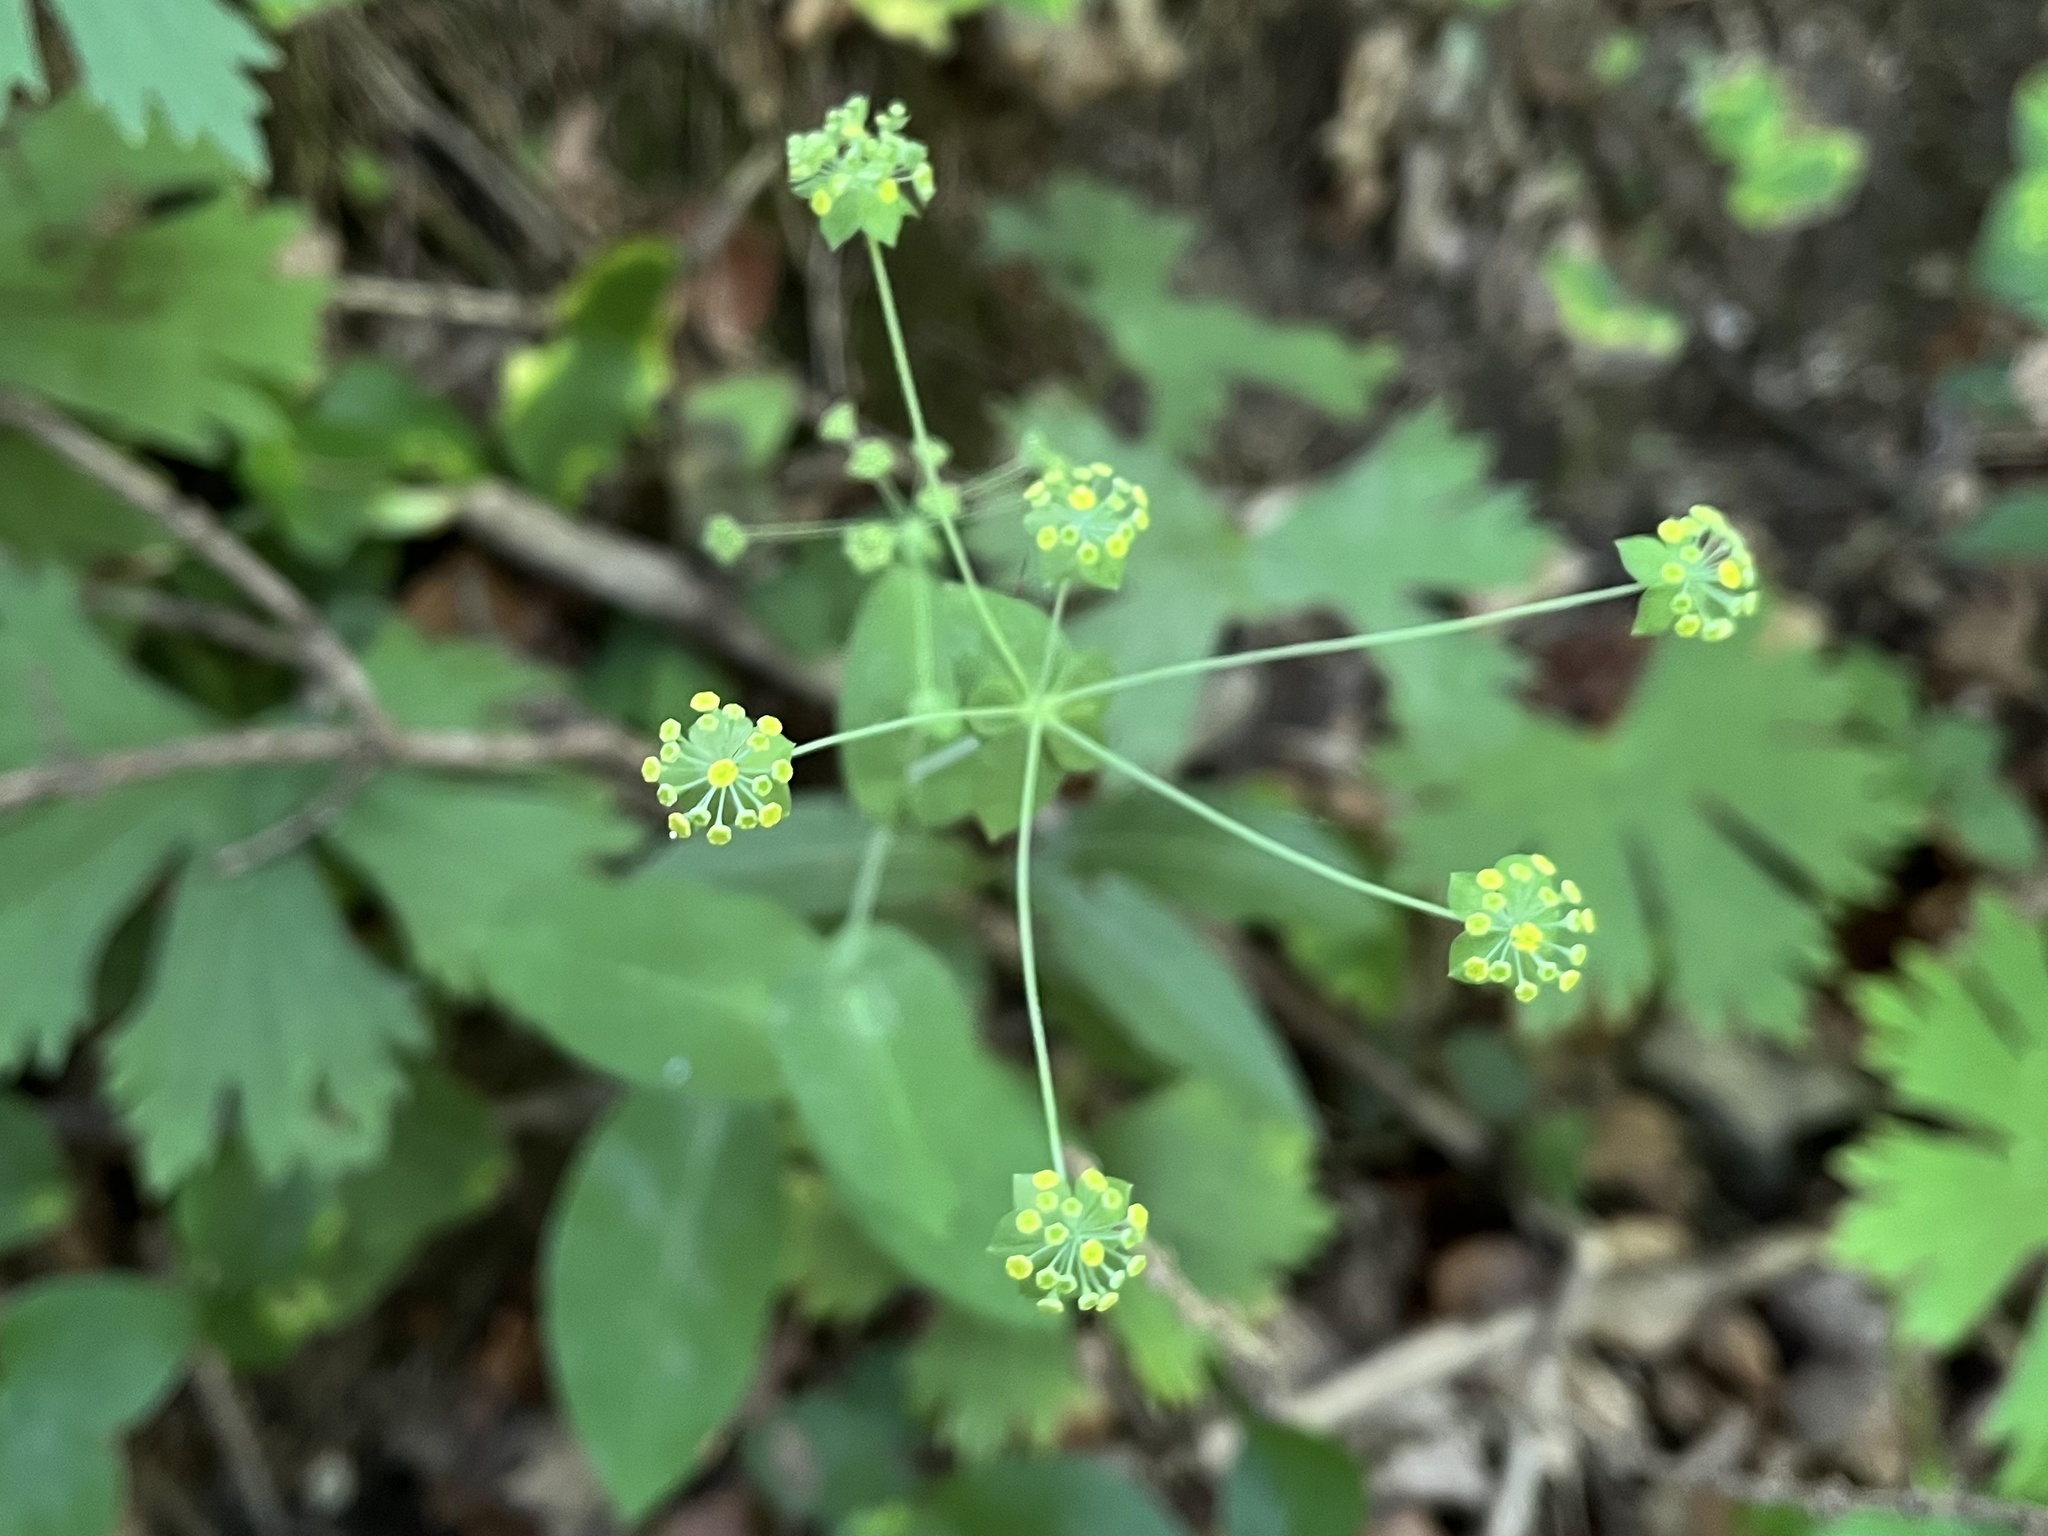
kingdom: Plantae
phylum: Tracheophyta
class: Magnoliopsida
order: Apiales
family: Apiaceae
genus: Bupleurum
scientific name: Bupleurum longifolium
